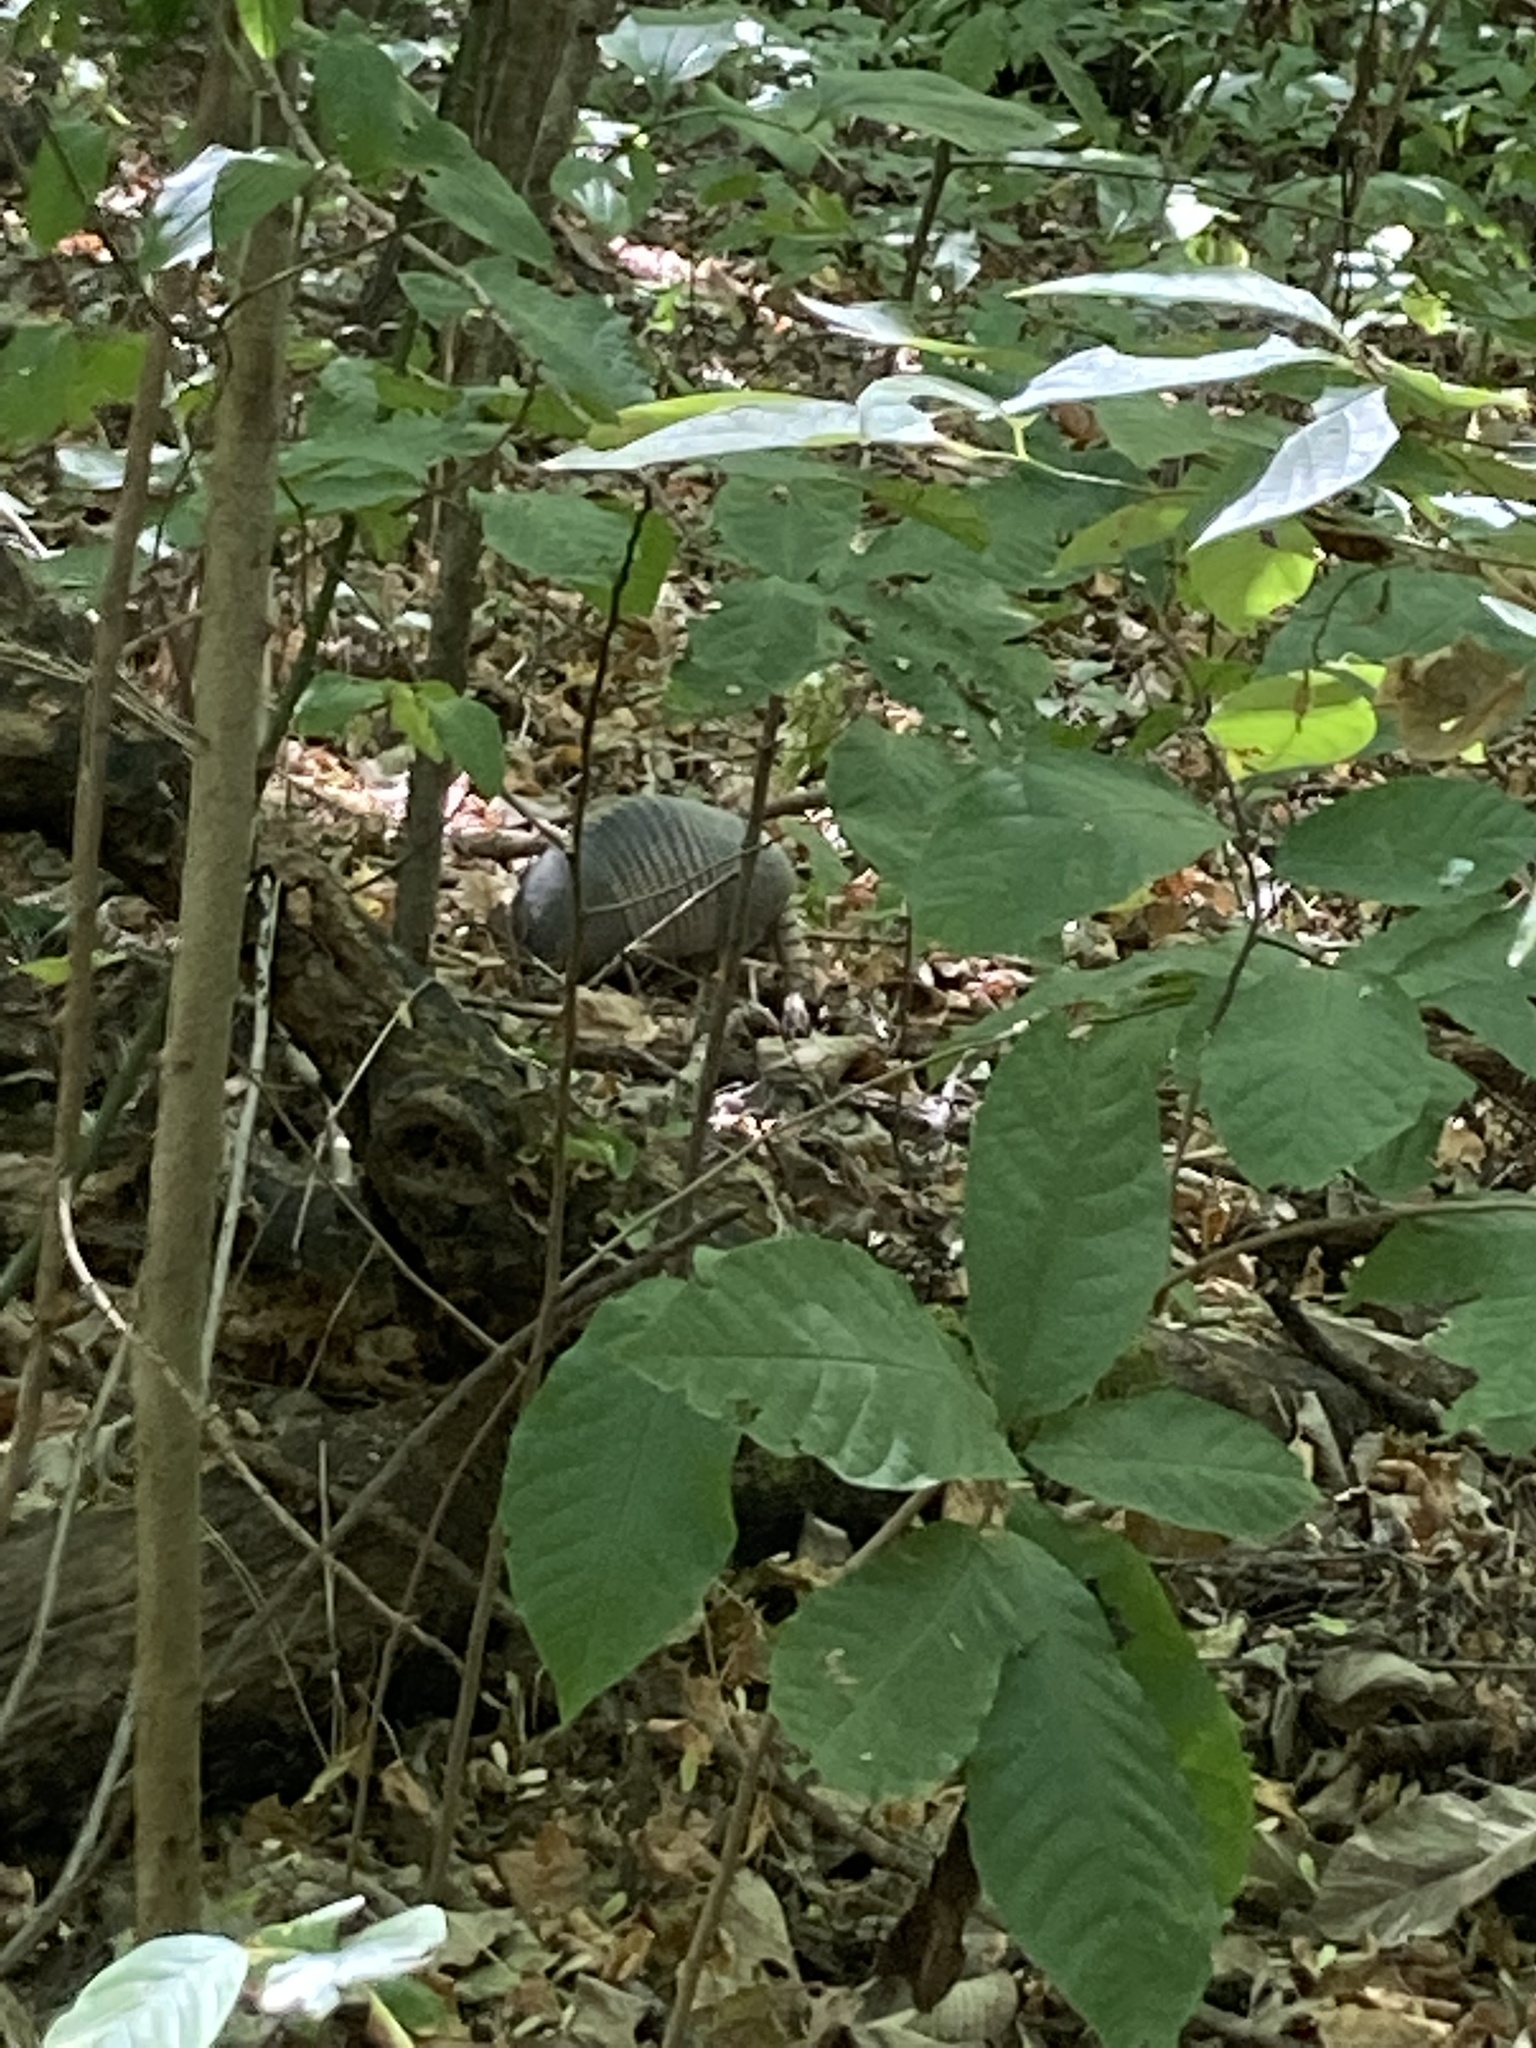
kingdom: Animalia
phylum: Chordata
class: Mammalia
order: Cingulata
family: Dasypodidae
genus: Dasypus
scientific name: Dasypus novemcinctus
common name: Nine-banded armadillo
